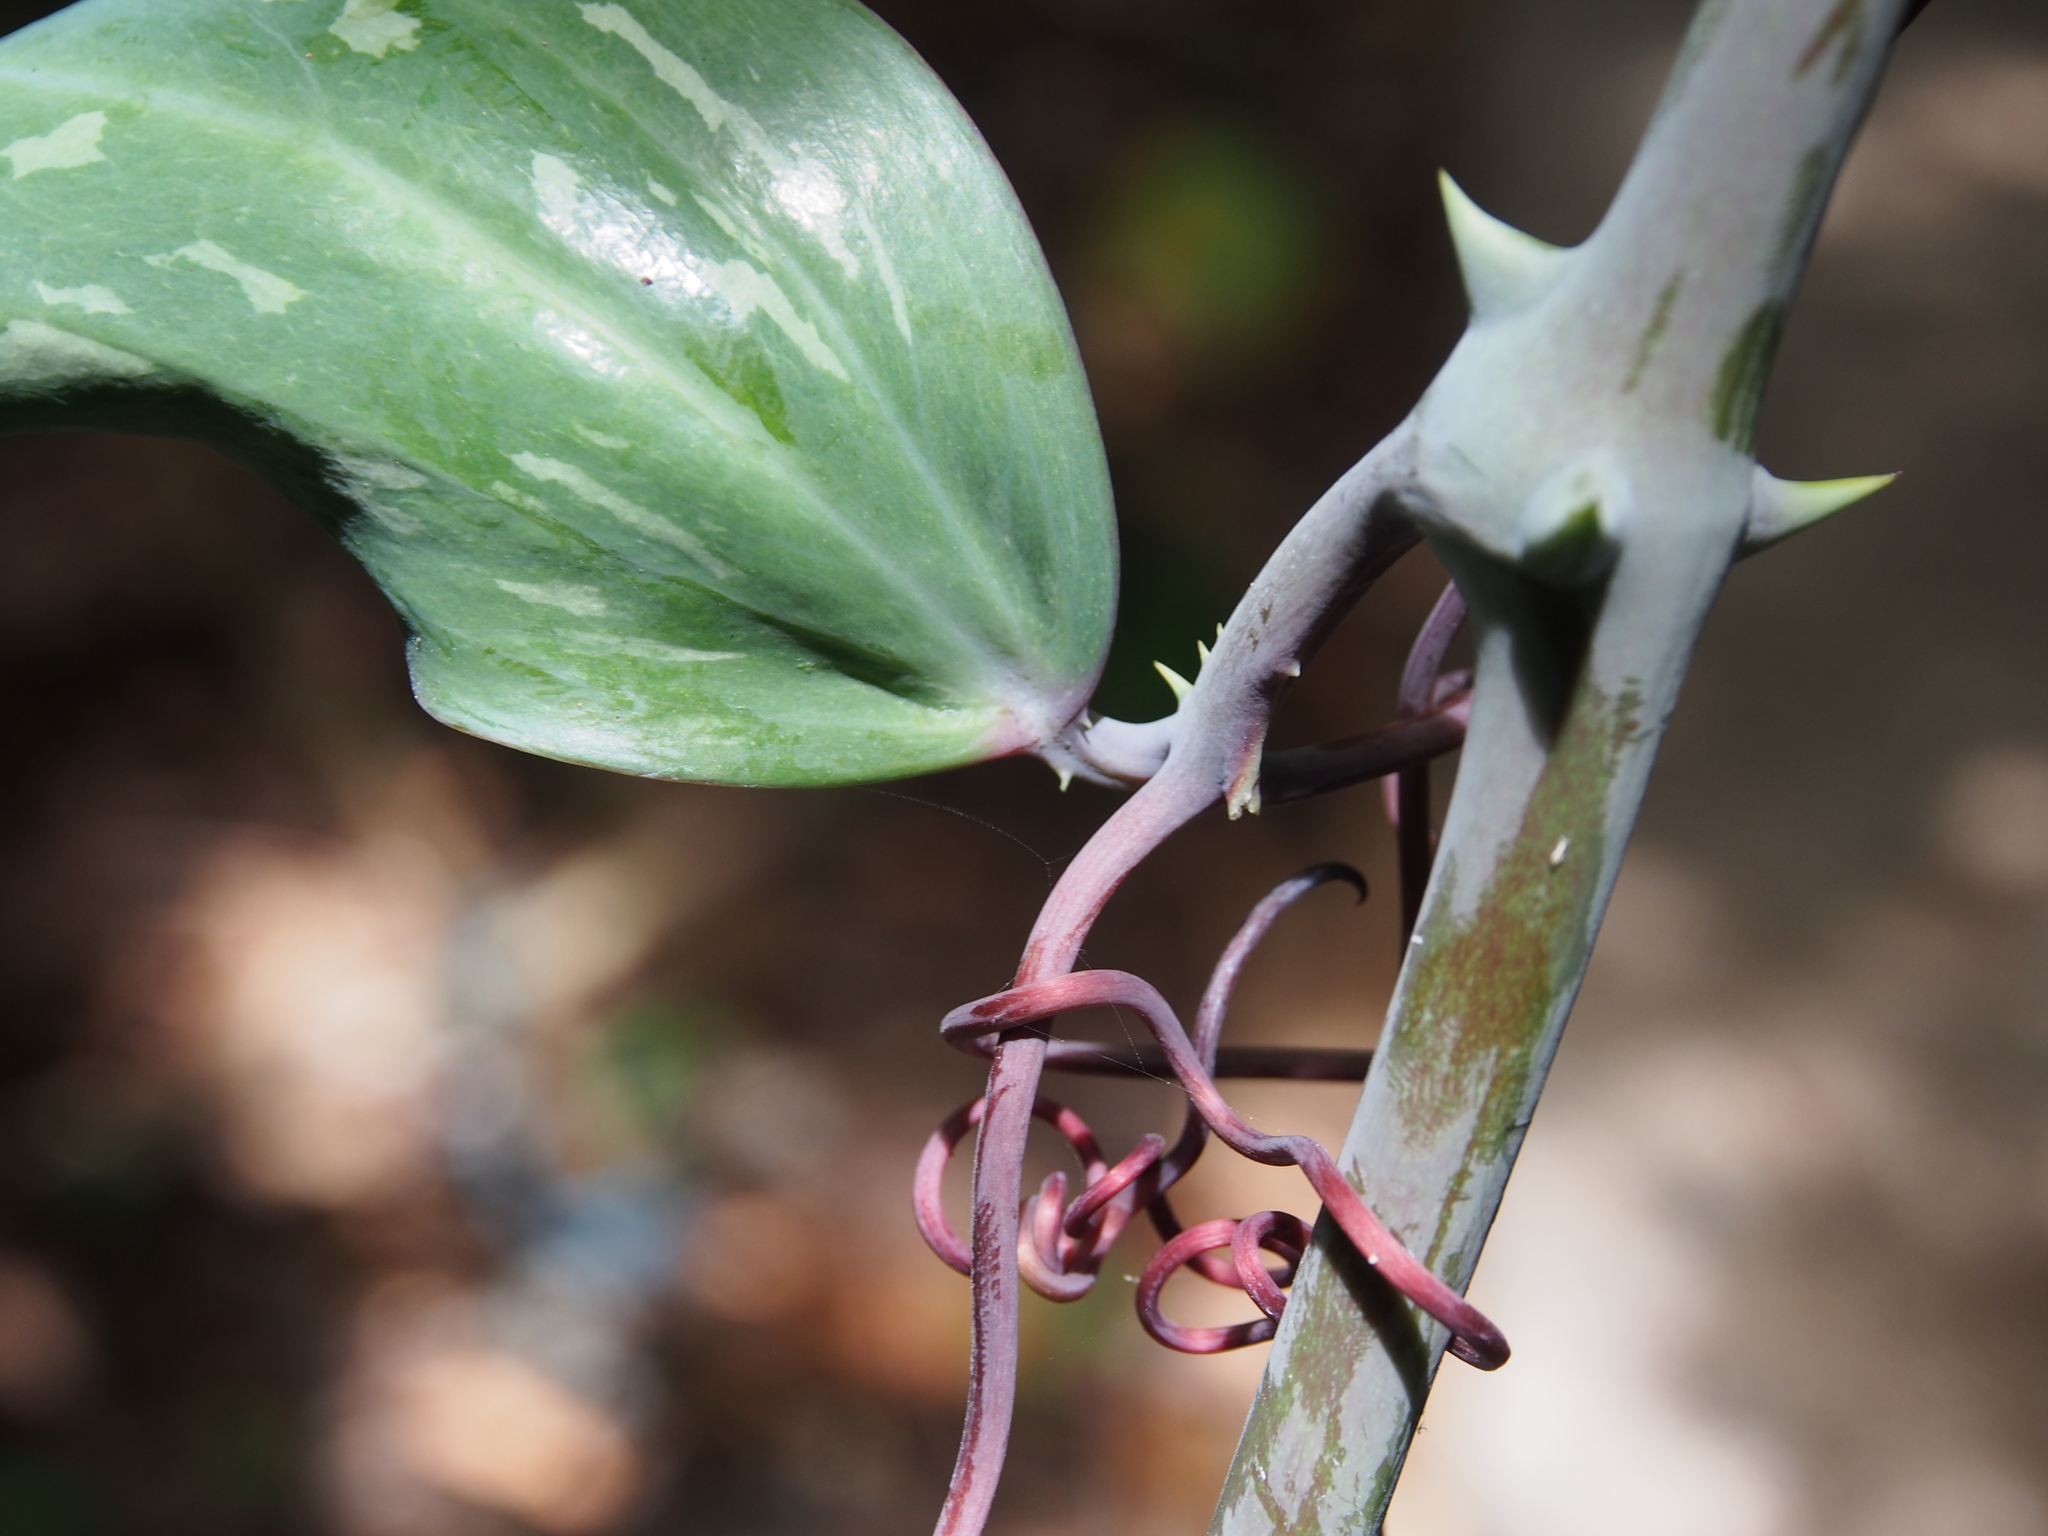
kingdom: Plantae
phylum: Tracheophyta
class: Liliopsida
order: Liliales
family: Smilacaceae
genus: Smilax
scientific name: Smilax officinalis
